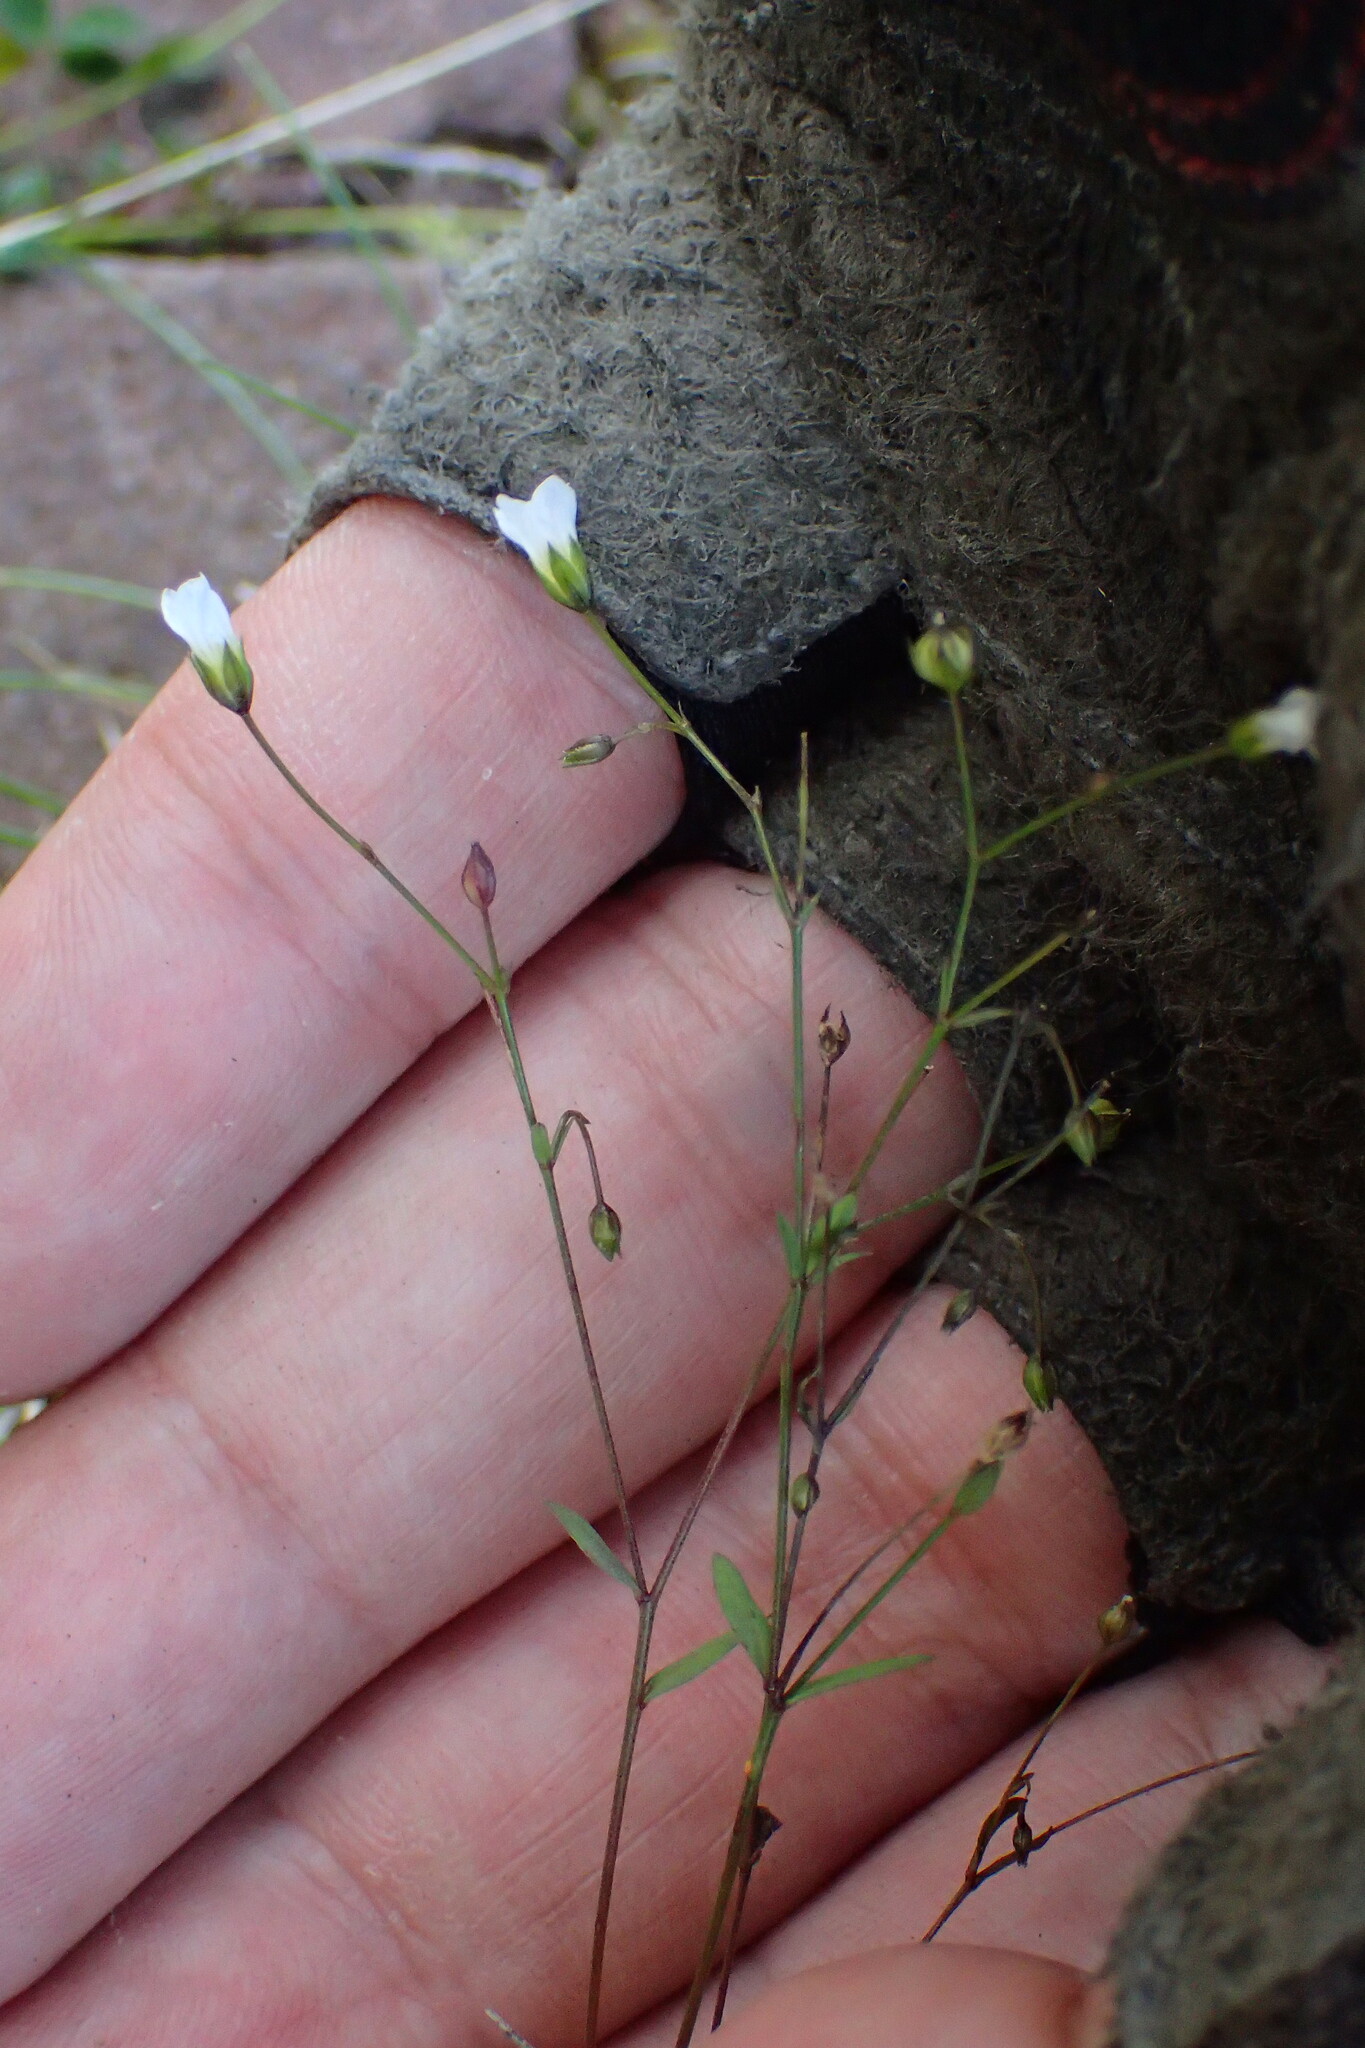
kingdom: Plantae
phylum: Tracheophyta
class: Magnoliopsida
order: Malpighiales
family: Linaceae
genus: Linum
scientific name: Linum catharticum
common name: Fairy flax
